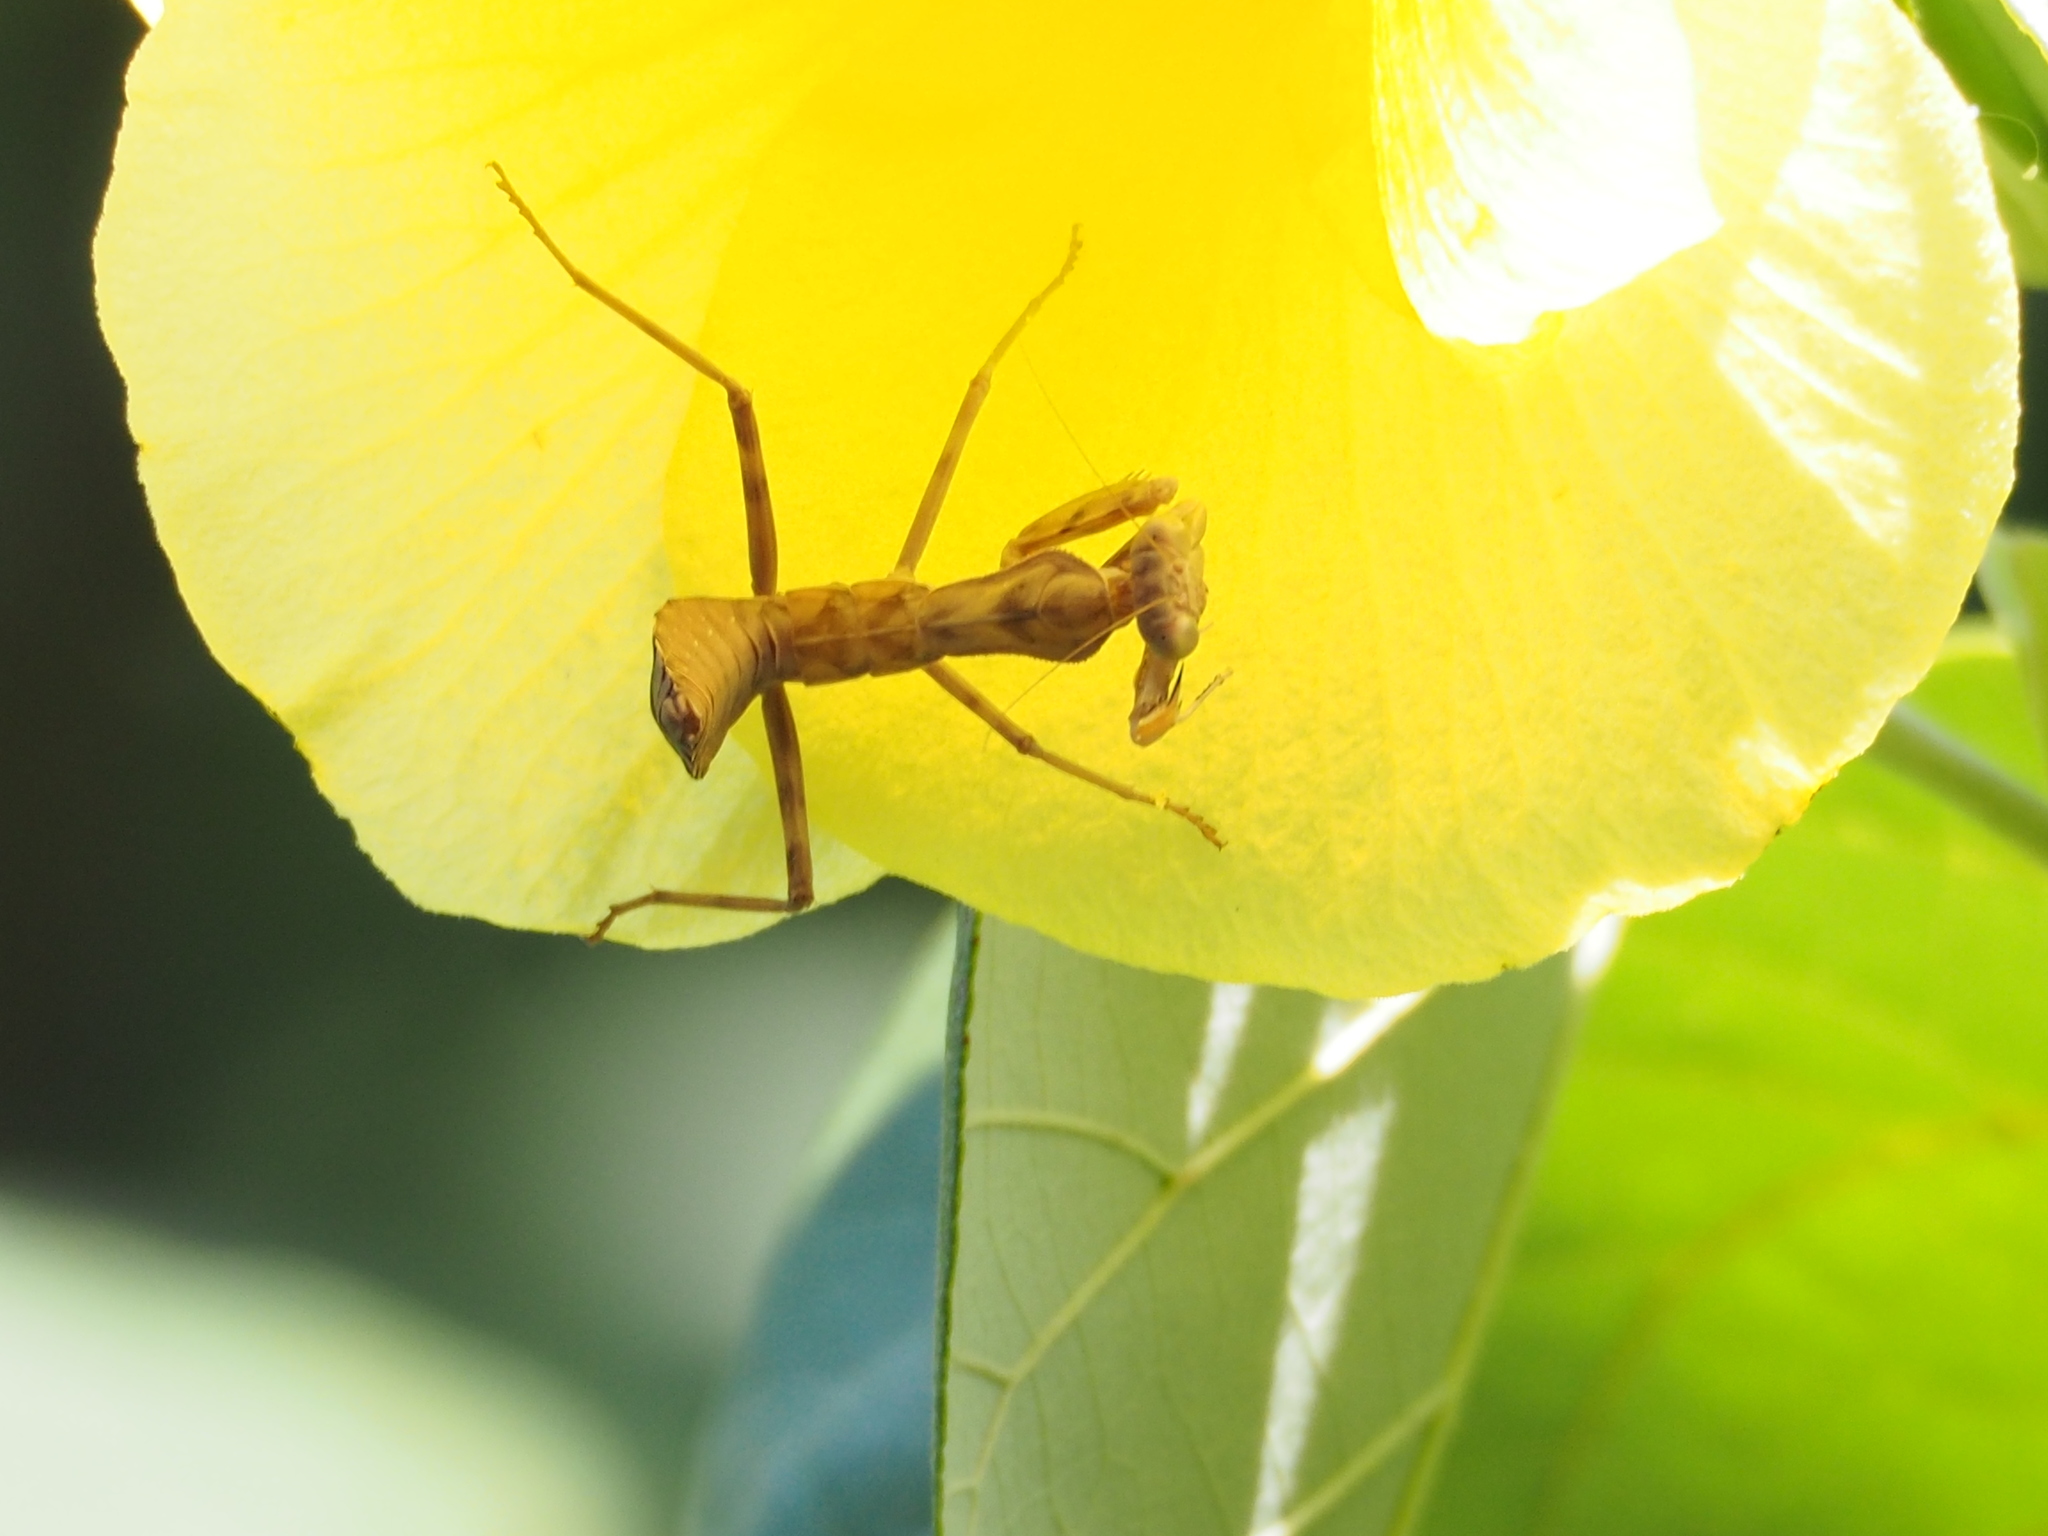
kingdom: Animalia
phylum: Arthropoda
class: Insecta
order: Mantodea
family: Mantidae
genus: Hierodula
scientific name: Hierodula patellifera
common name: Asian mantis
